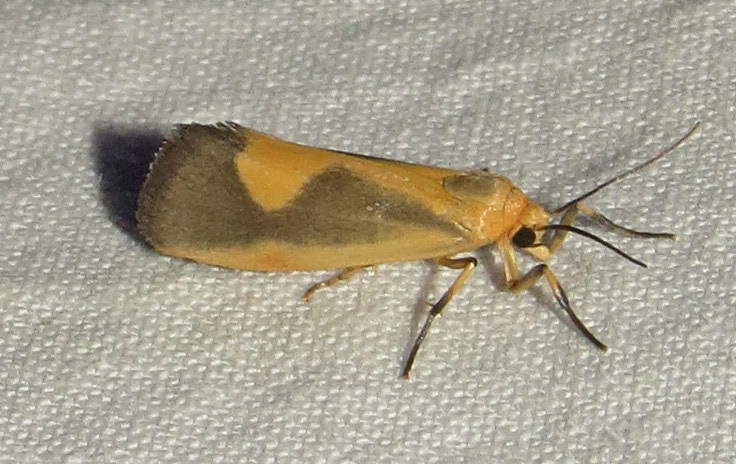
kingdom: Animalia
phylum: Arthropoda
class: Insecta
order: Lepidoptera
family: Erebidae
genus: Cisthene
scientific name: Cisthene plumbea
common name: Lead colored lichen moth
